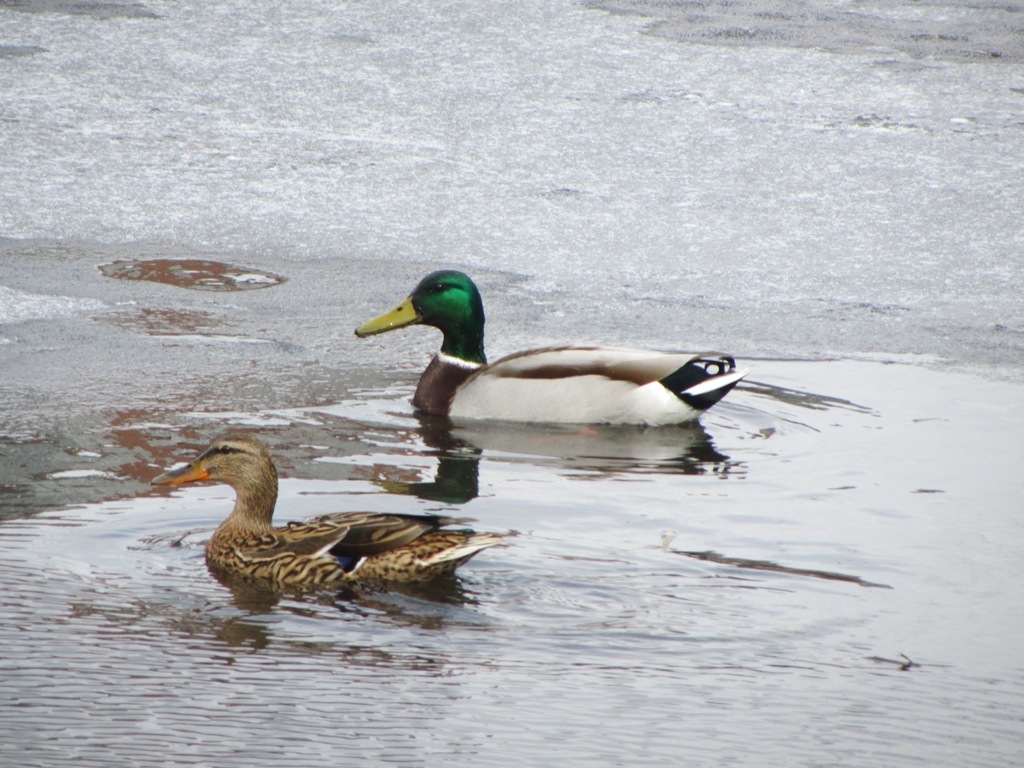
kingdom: Animalia
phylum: Chordata
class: Aves
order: Anseriformes
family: Anatidae
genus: Anas
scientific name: Anas platyrhynchos
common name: Mallard
